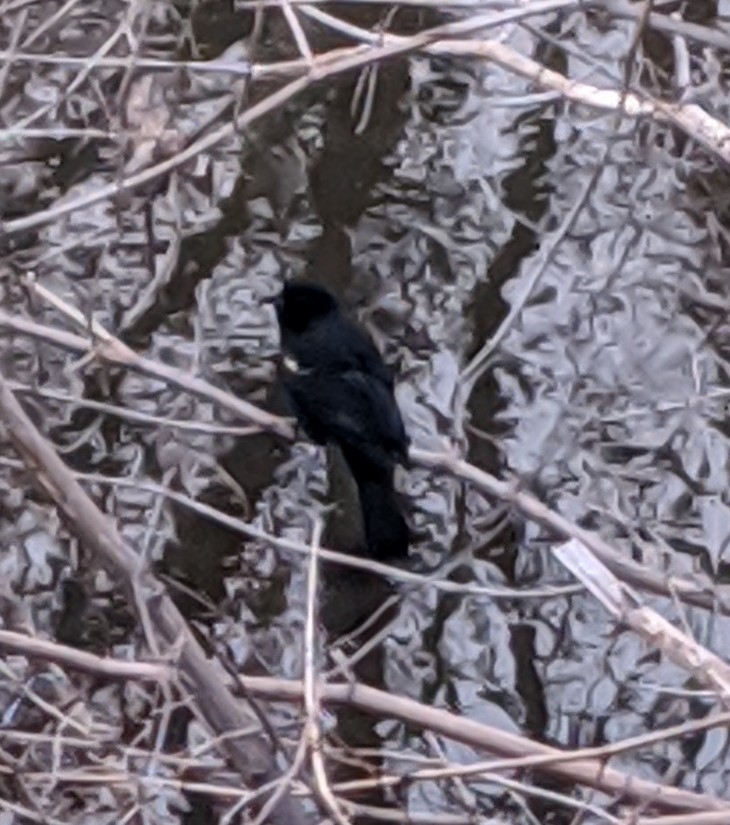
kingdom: Animalia
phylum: Chordata
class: Aves
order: Passeriformes
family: Icteridae
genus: Agelaius
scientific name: Agelaius phoeniceus
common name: Red-winged blackbird
